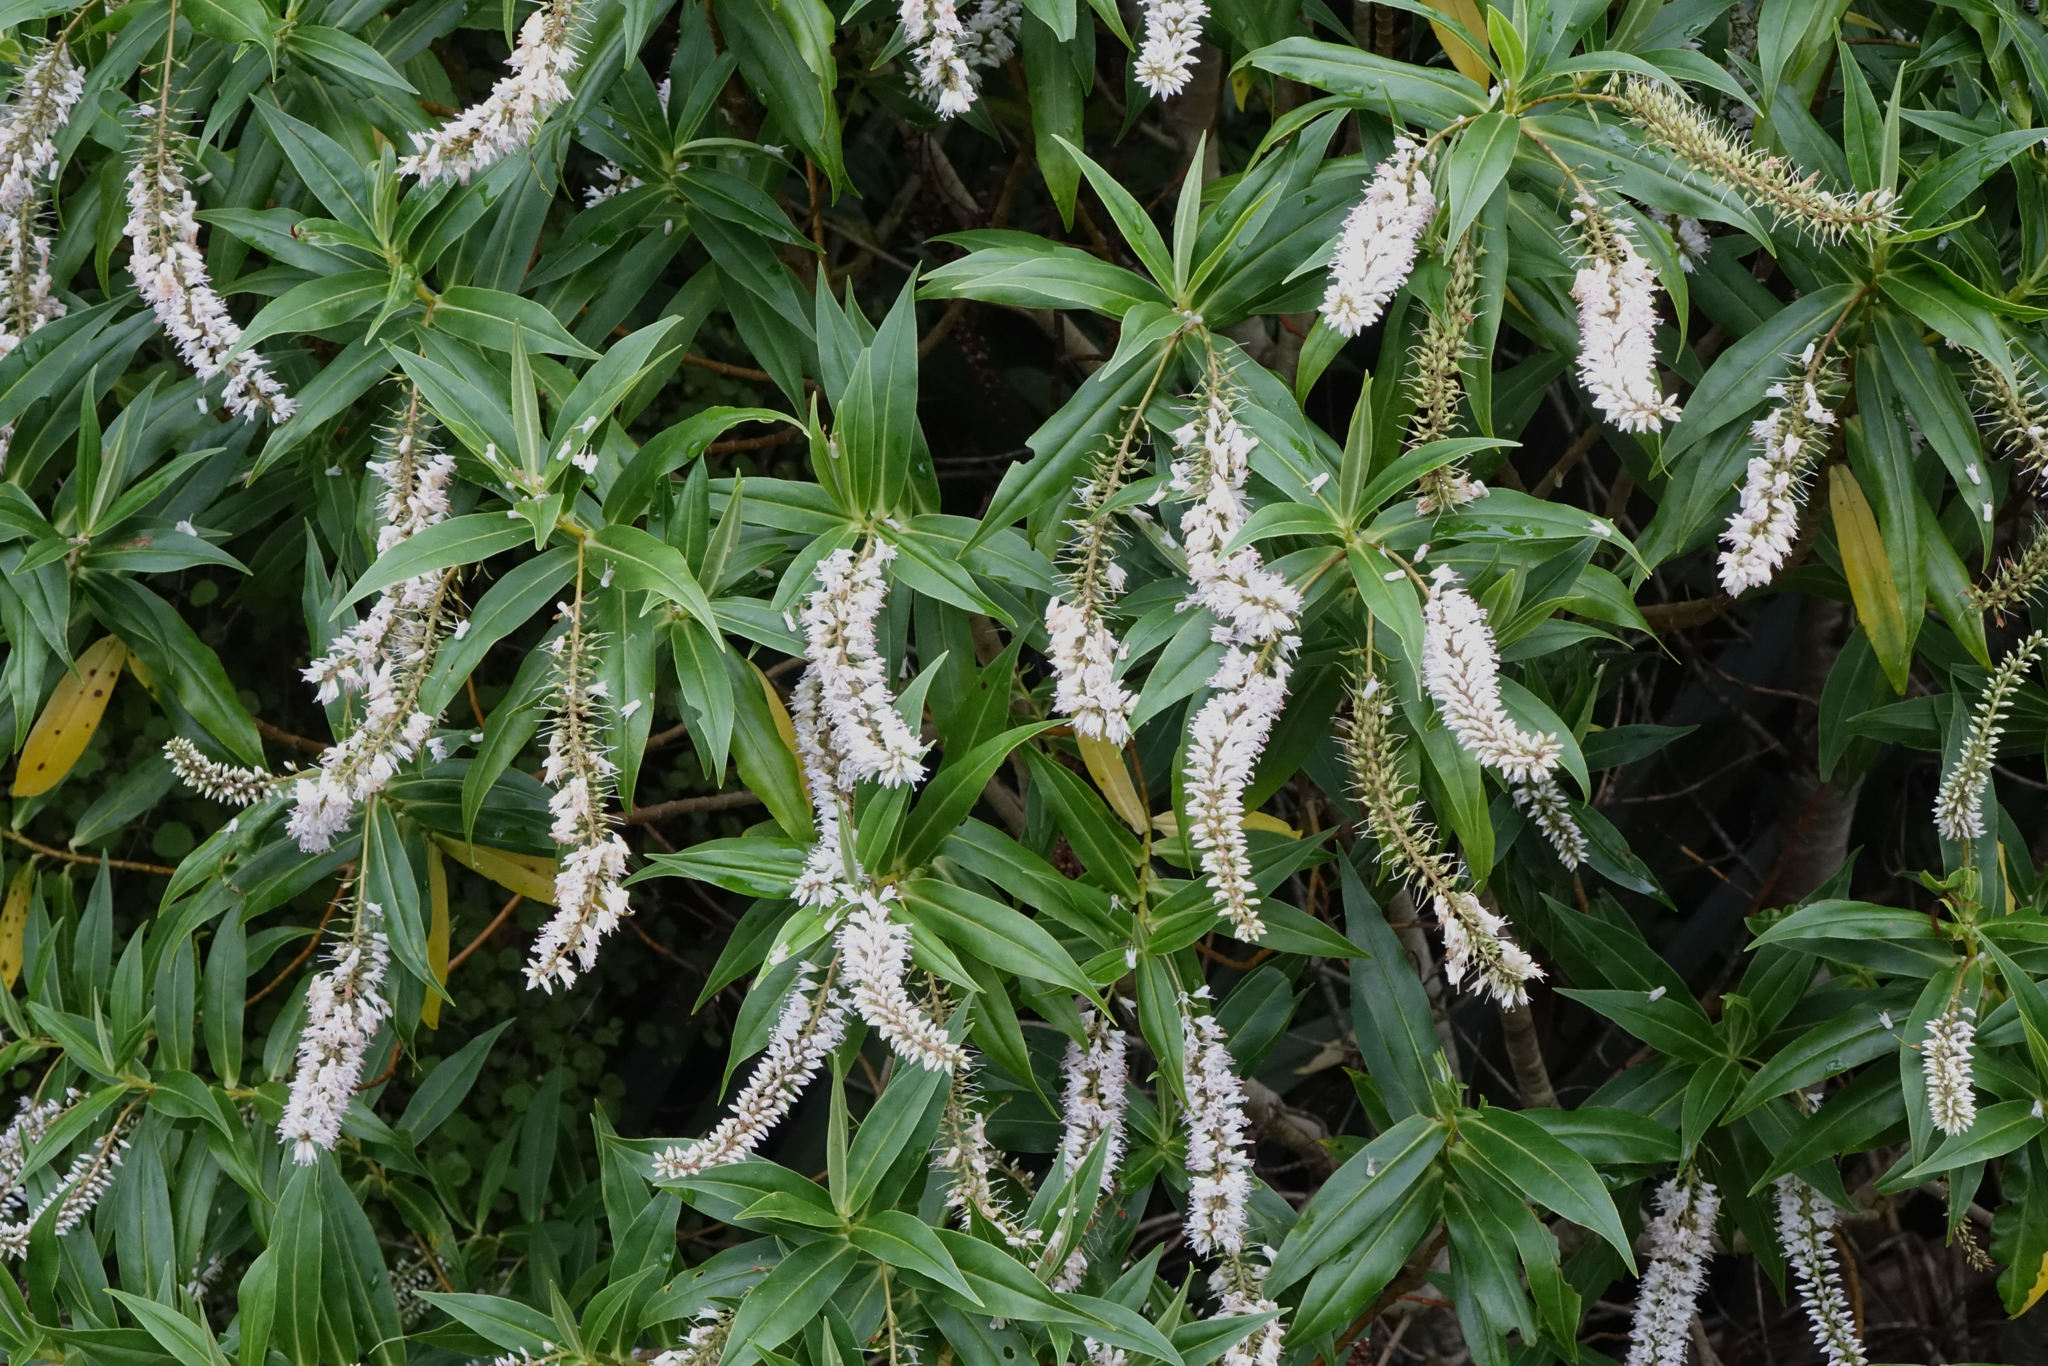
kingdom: Plantae
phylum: Tracheophyta
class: Magnoliopsida
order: Lamiales
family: Plantaginaceae
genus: Veronica
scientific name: Veronica salicifolia
